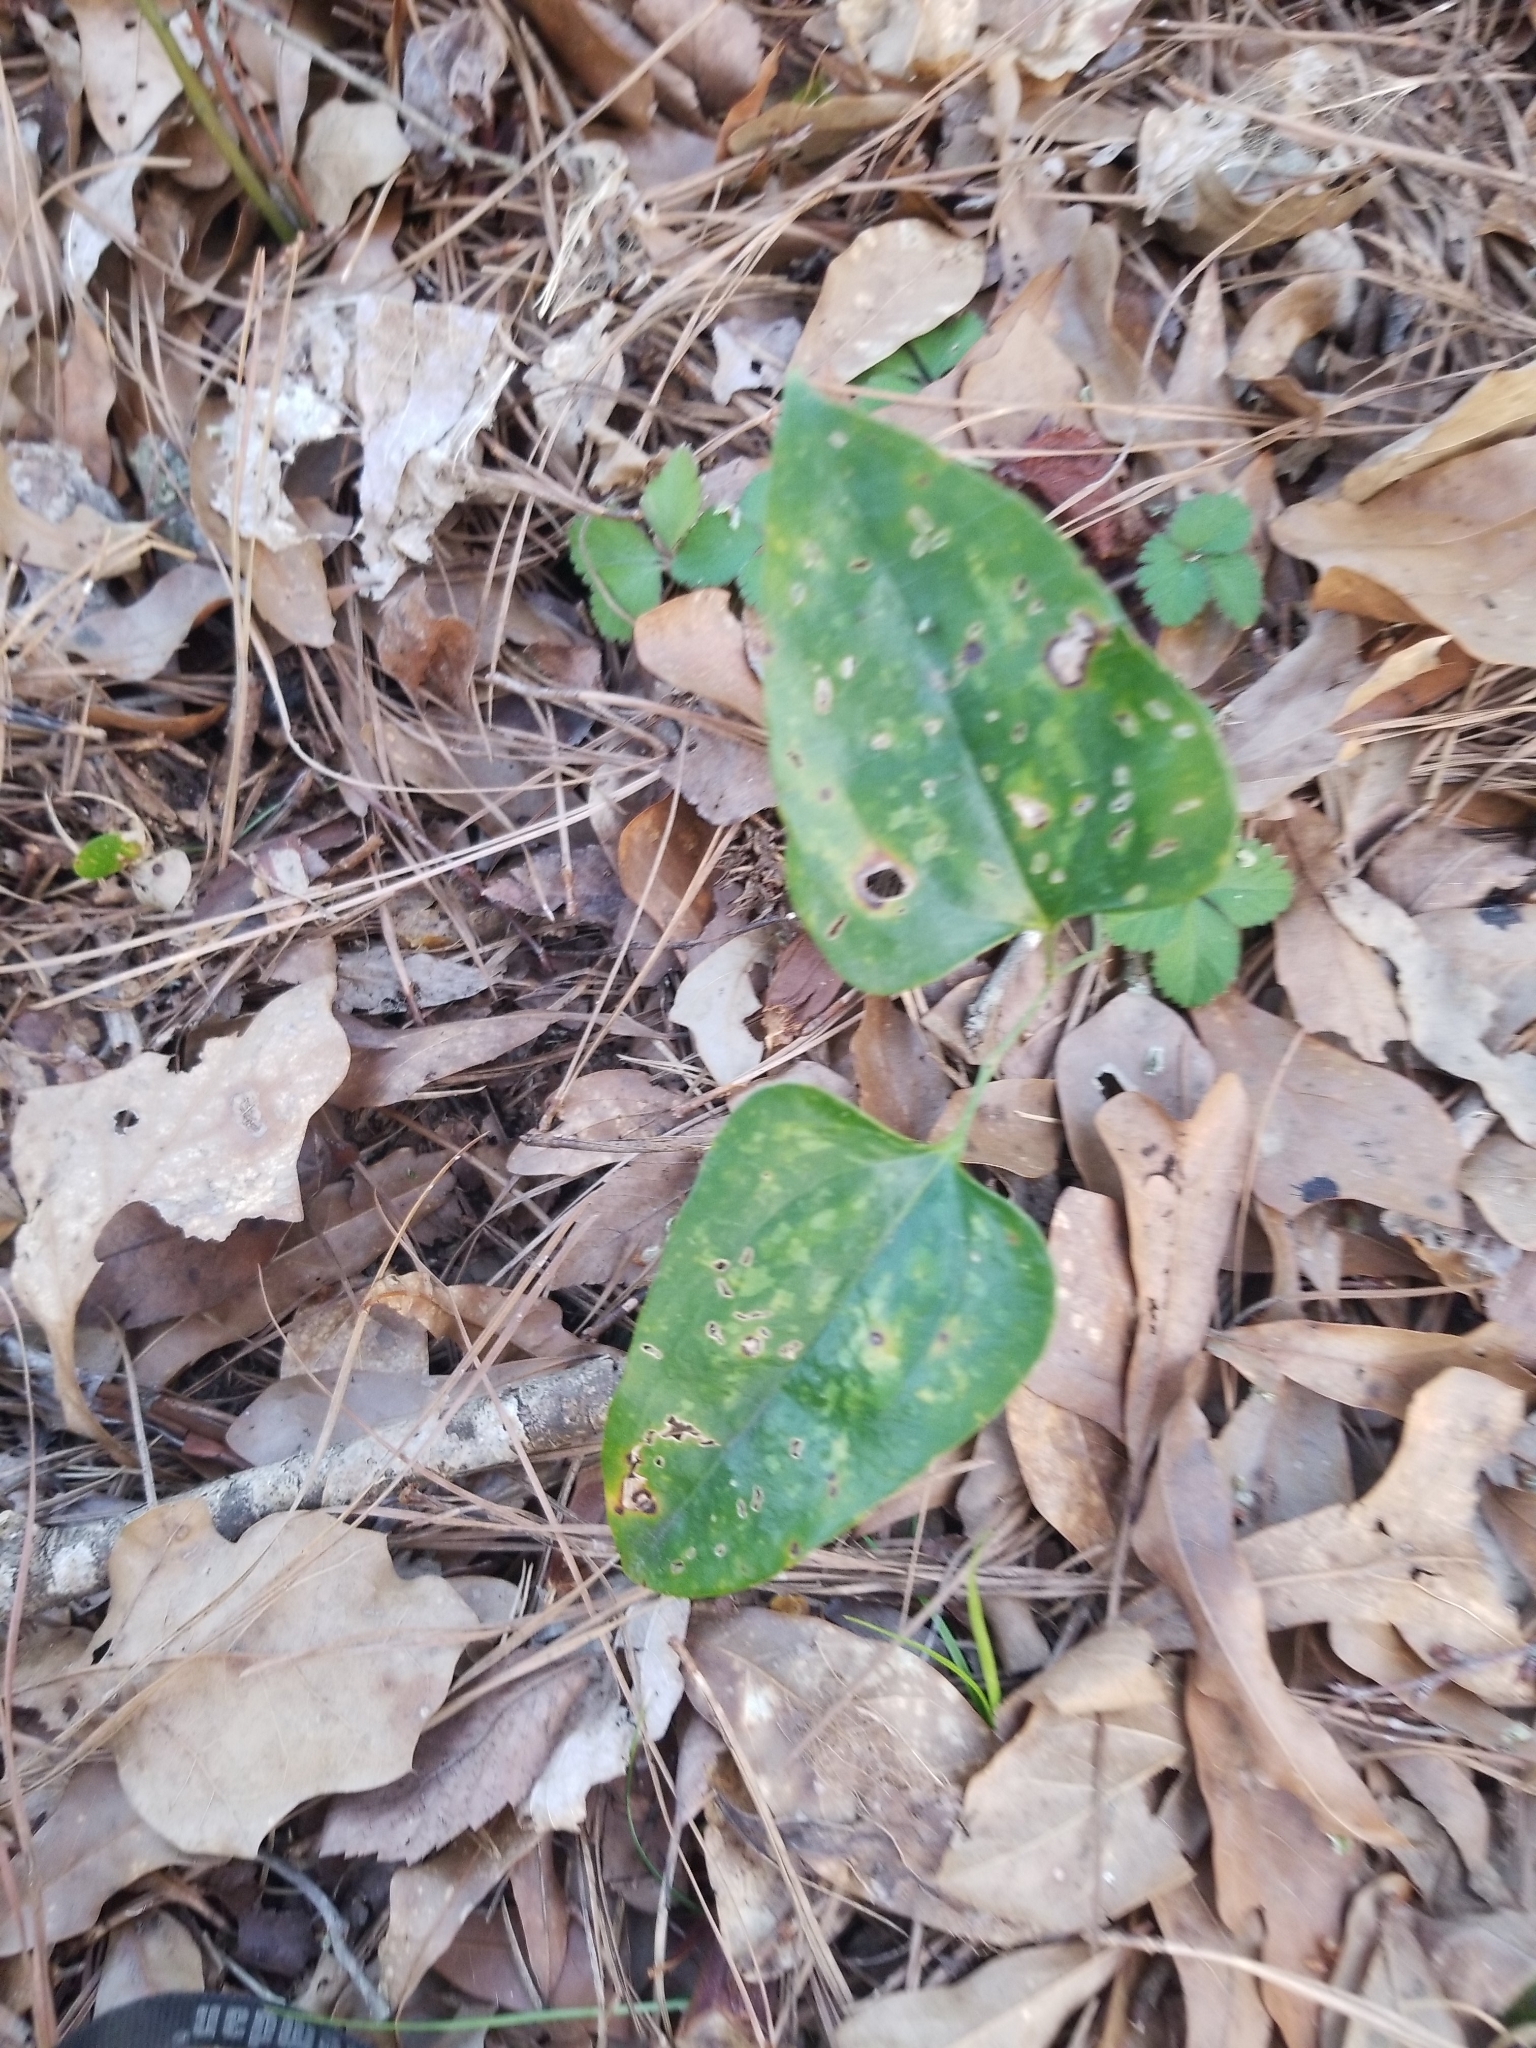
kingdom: Plantae
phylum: Tracheophyta
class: Liliopsida
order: Liliales
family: Smilacaceae
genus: Smilax
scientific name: Smilax bona-nox
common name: Catbrier
